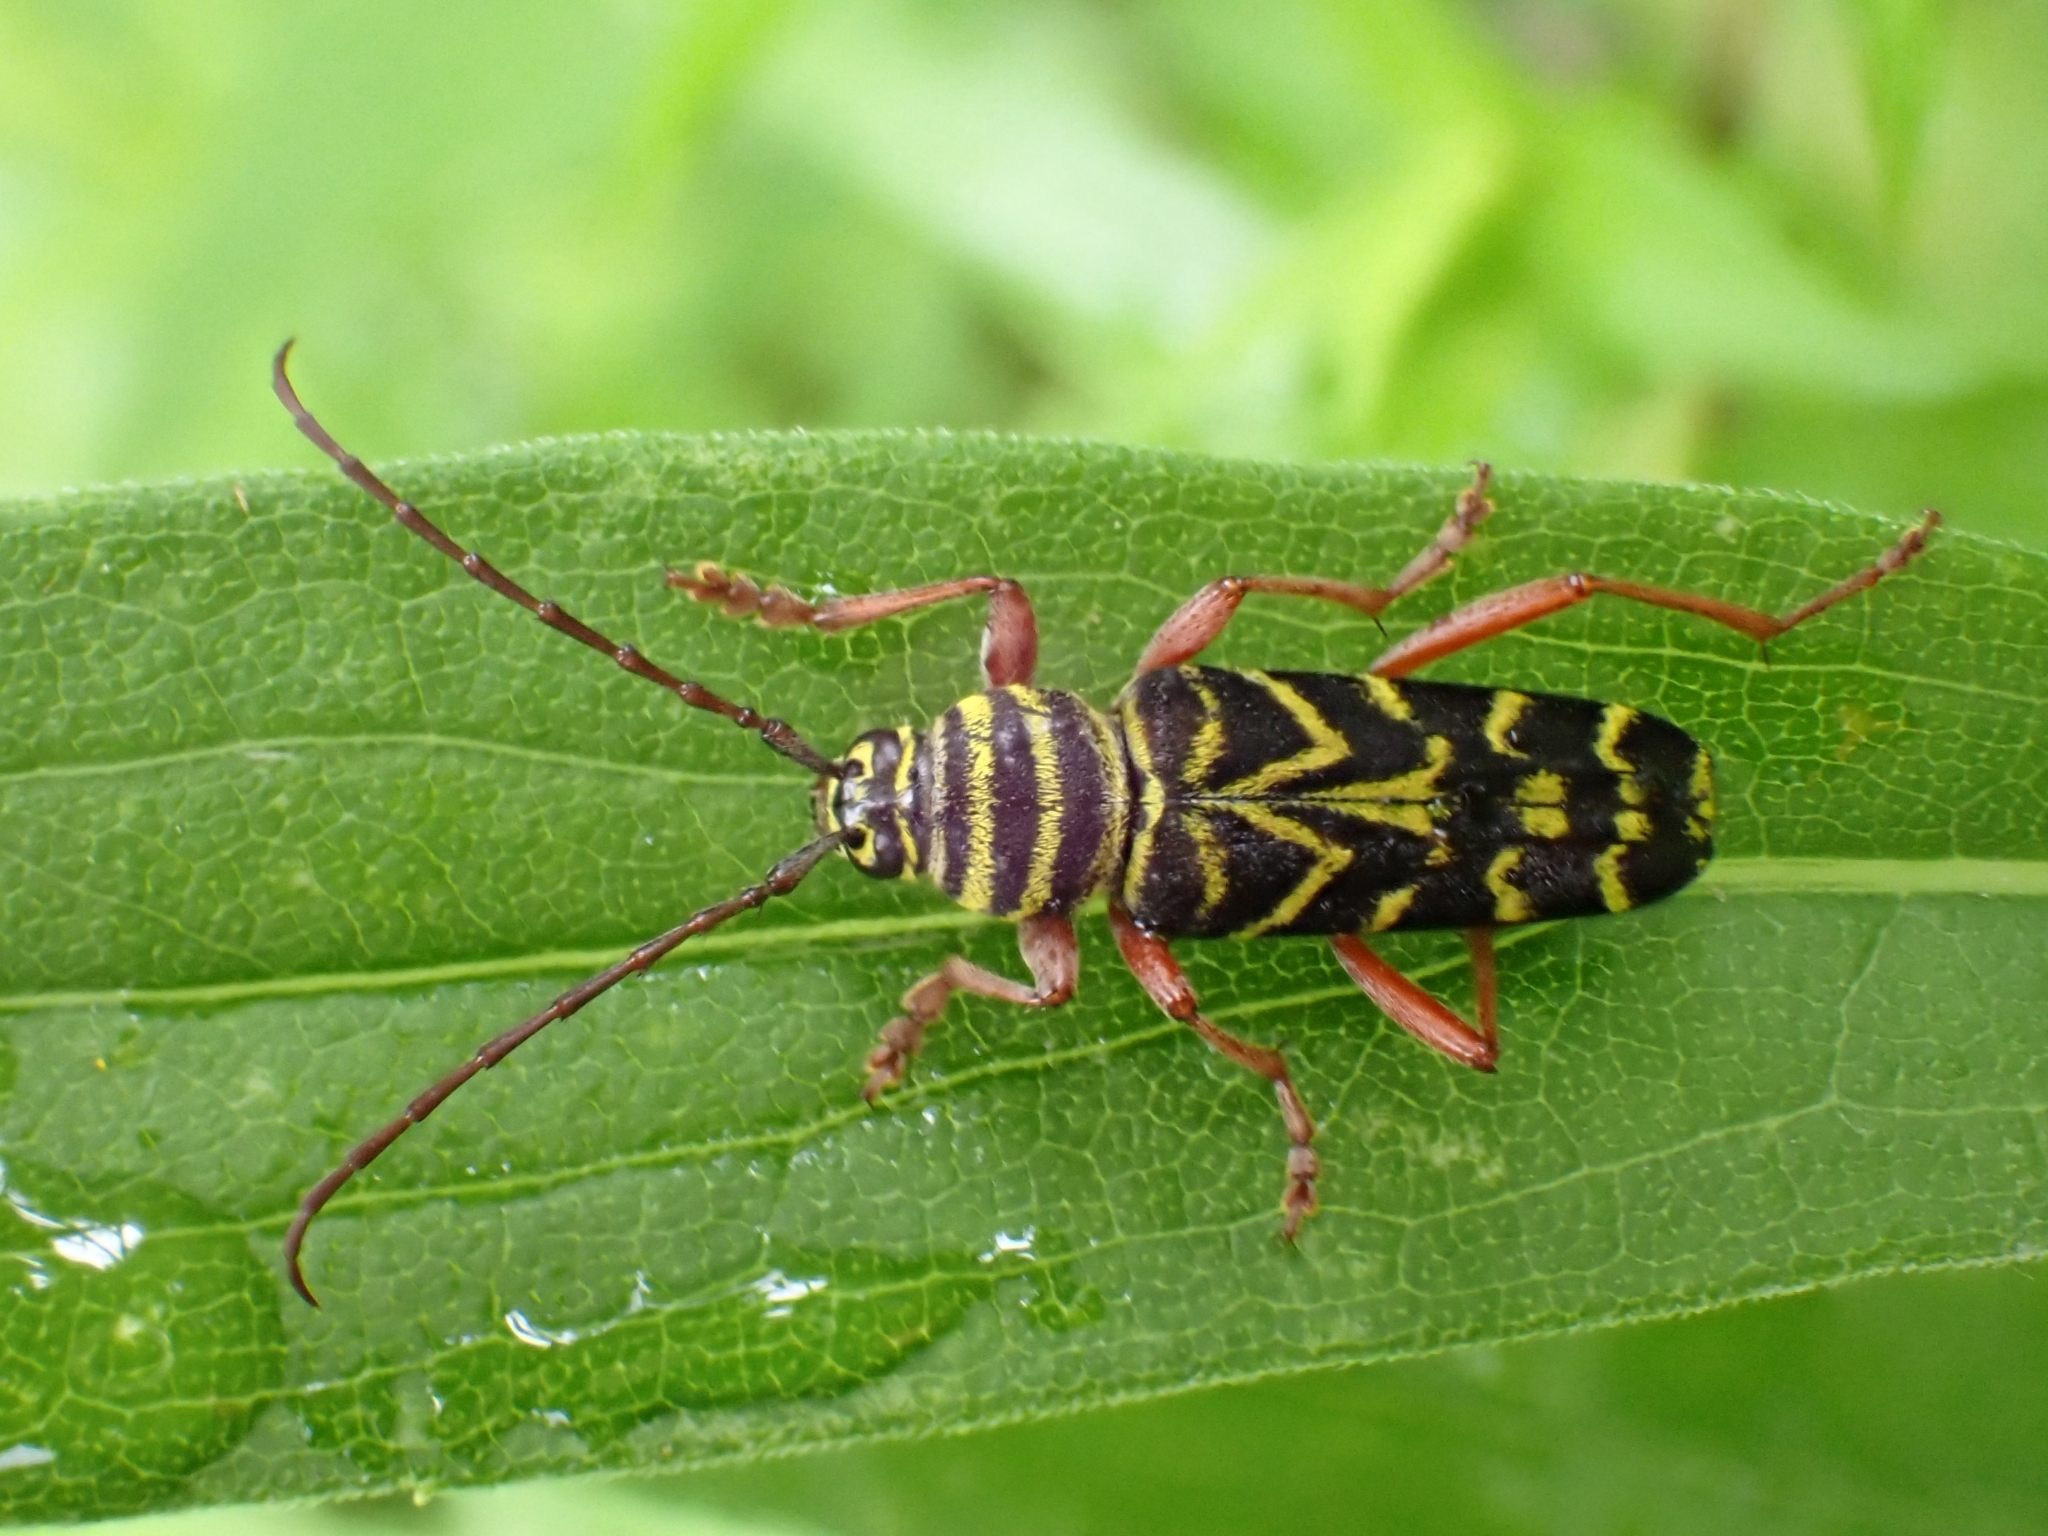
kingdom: Animalia
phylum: Arthropoda
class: Insecta
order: Coleoptera
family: Cerambycidae
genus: Megacyllene
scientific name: Megacyllene robiniae
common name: Locust borer
